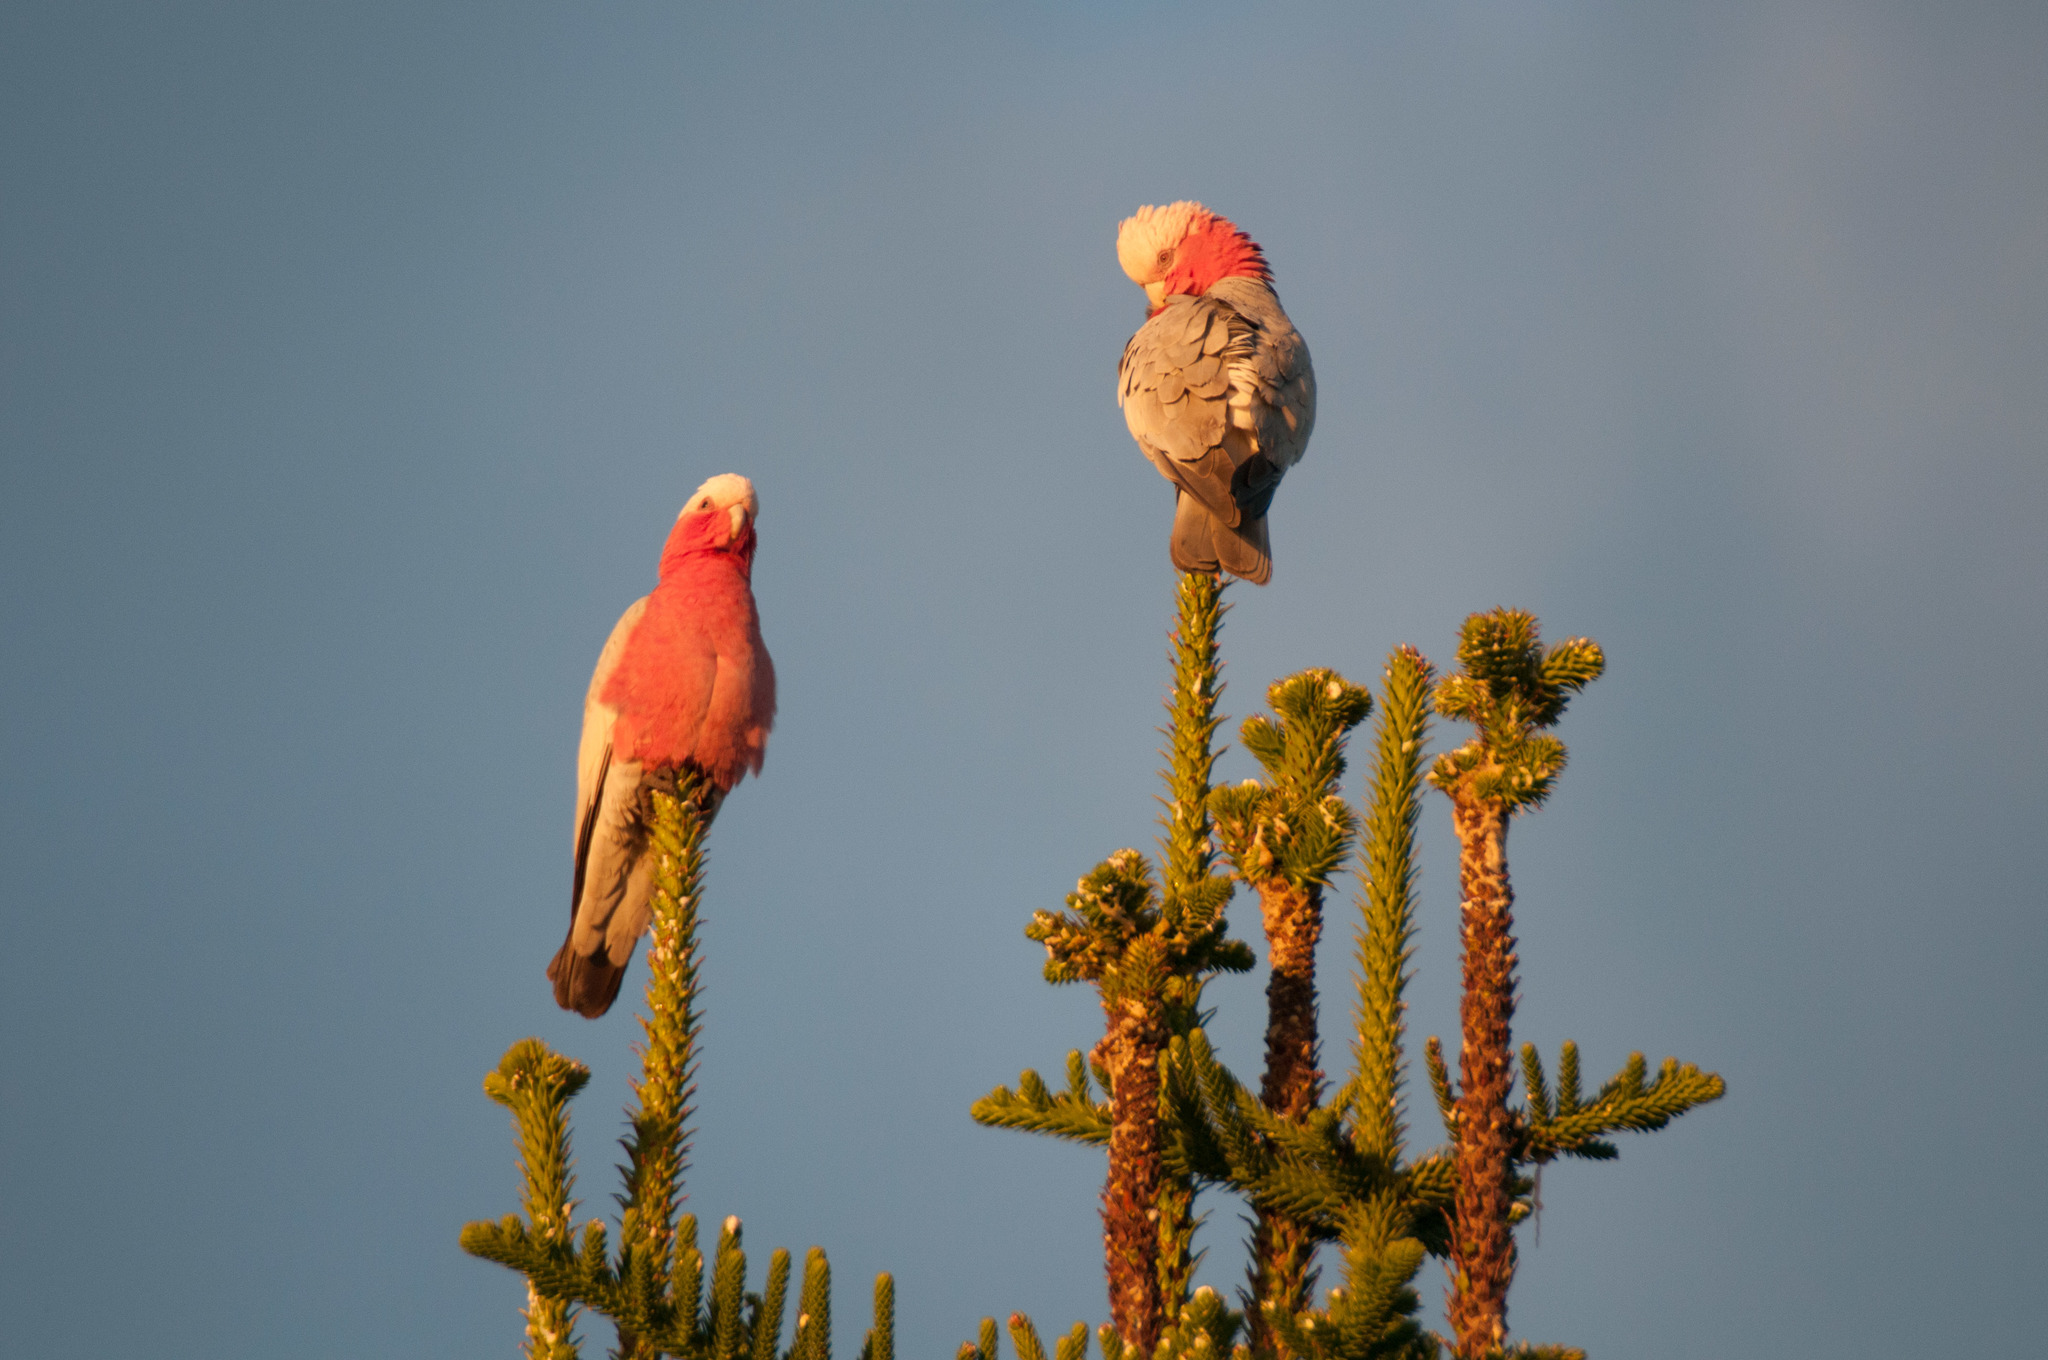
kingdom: Animalia
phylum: Chordata
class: Aves
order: Psittaciformes
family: Psittacidae
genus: Eolophus
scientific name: Eolophus roseicapilla
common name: Galah
